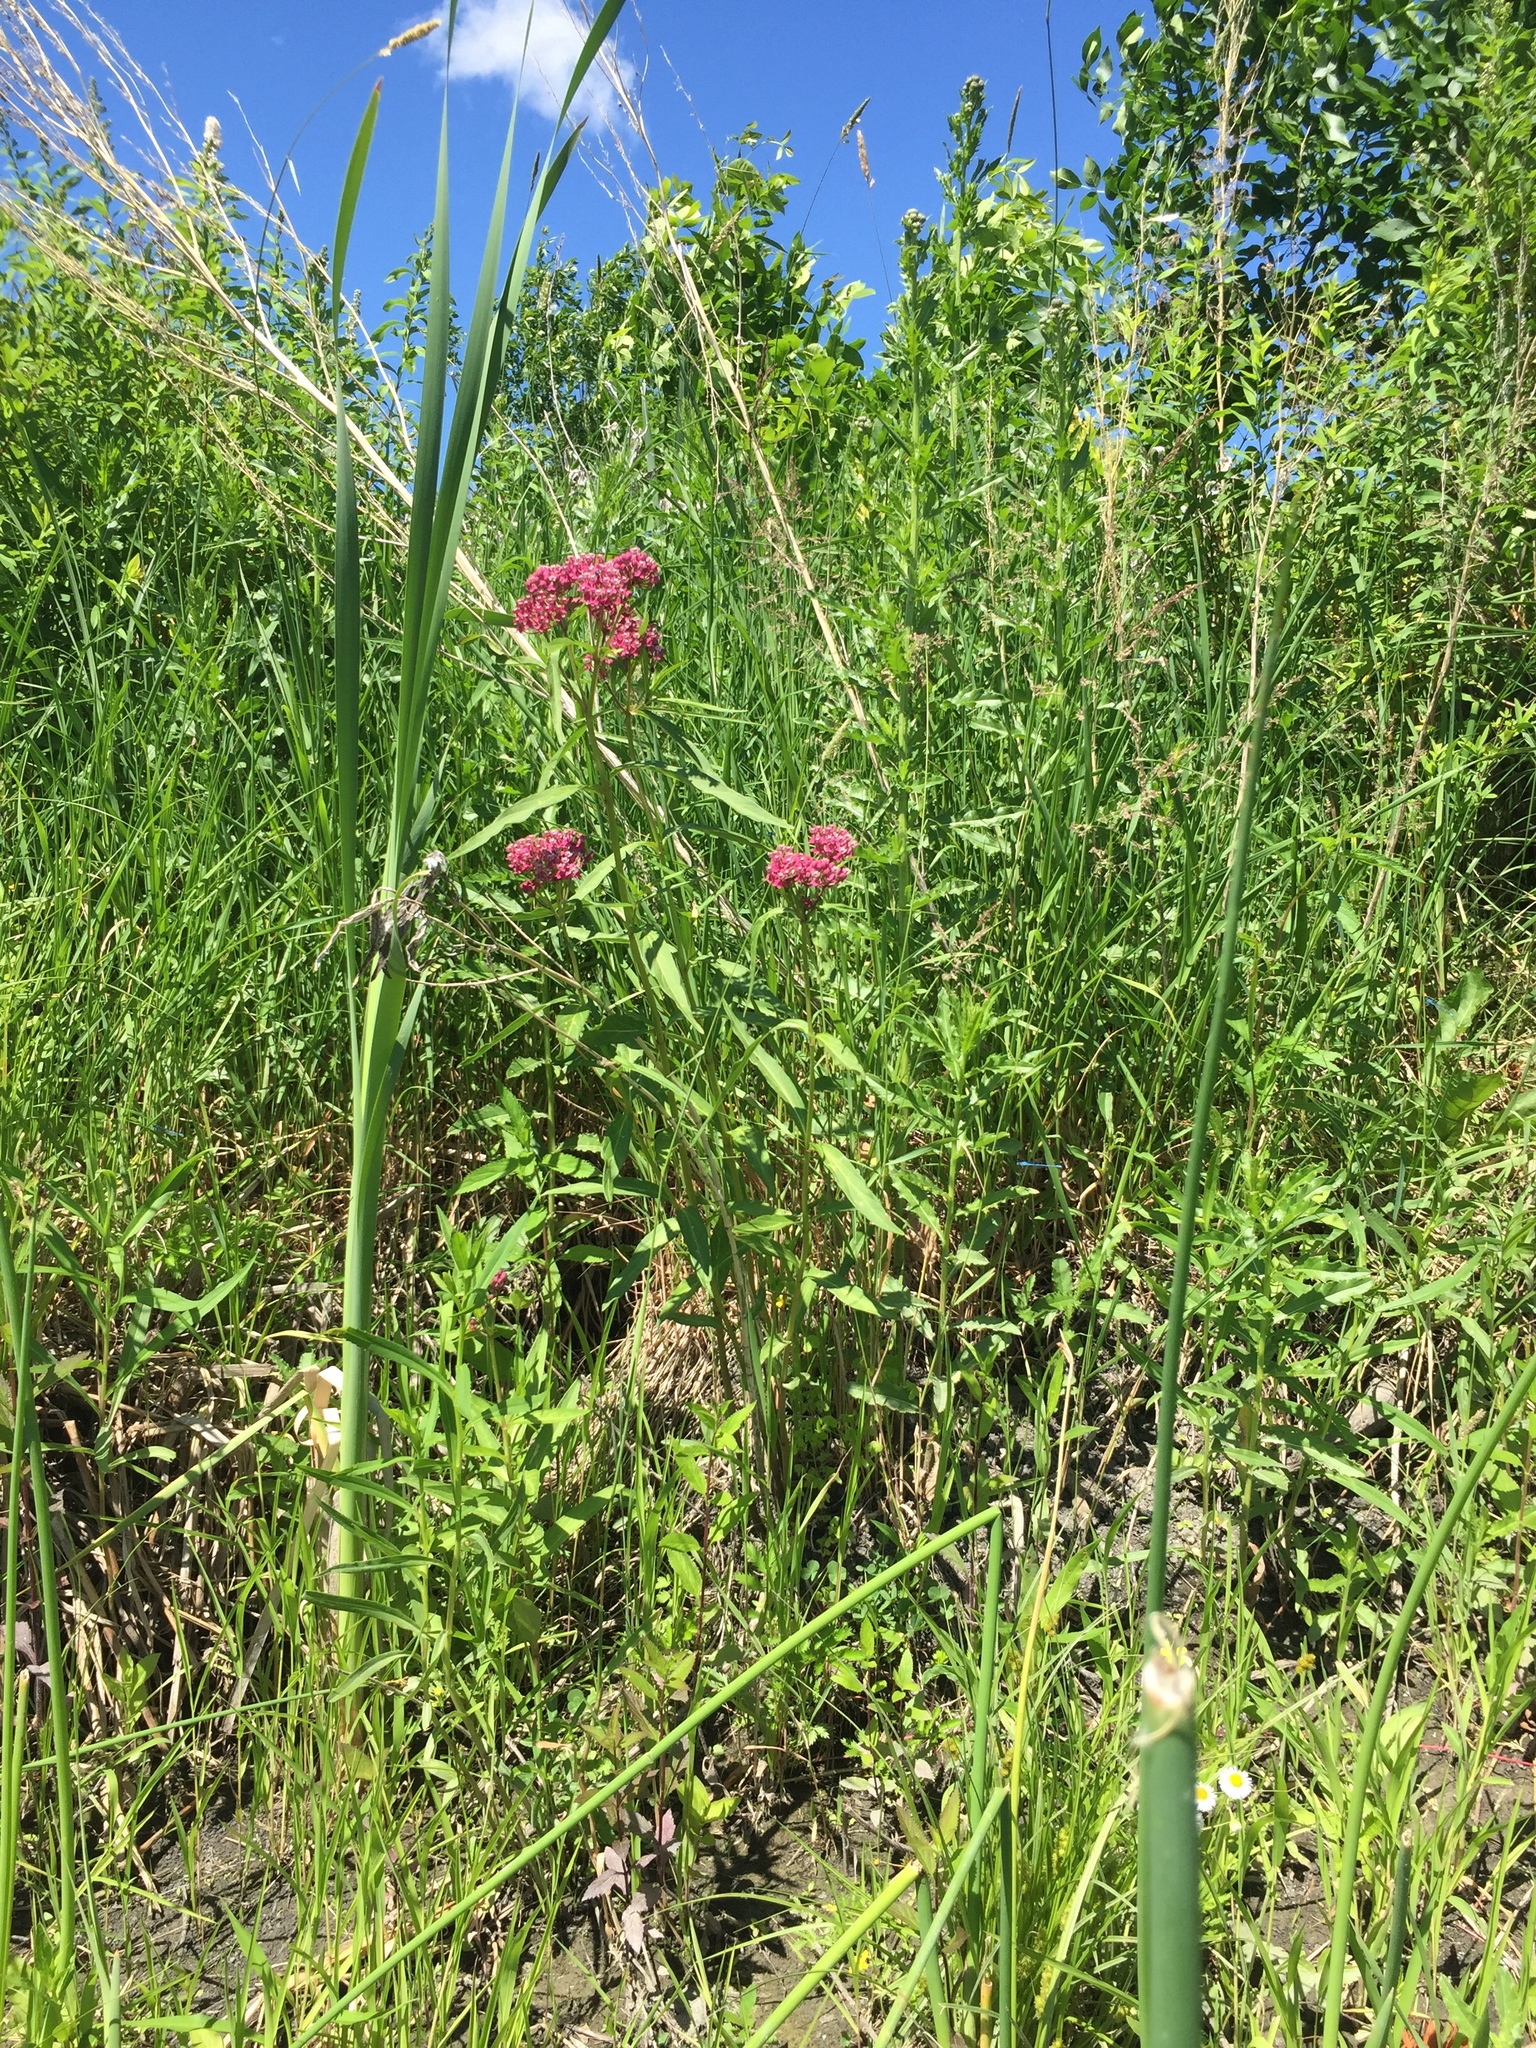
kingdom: Plantae
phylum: Tracheophyta
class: Magnoliopsida
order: Gentianales
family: Apocynaceae
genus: Asclepias
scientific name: Asclepias incarnata
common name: Swamp milkweed
